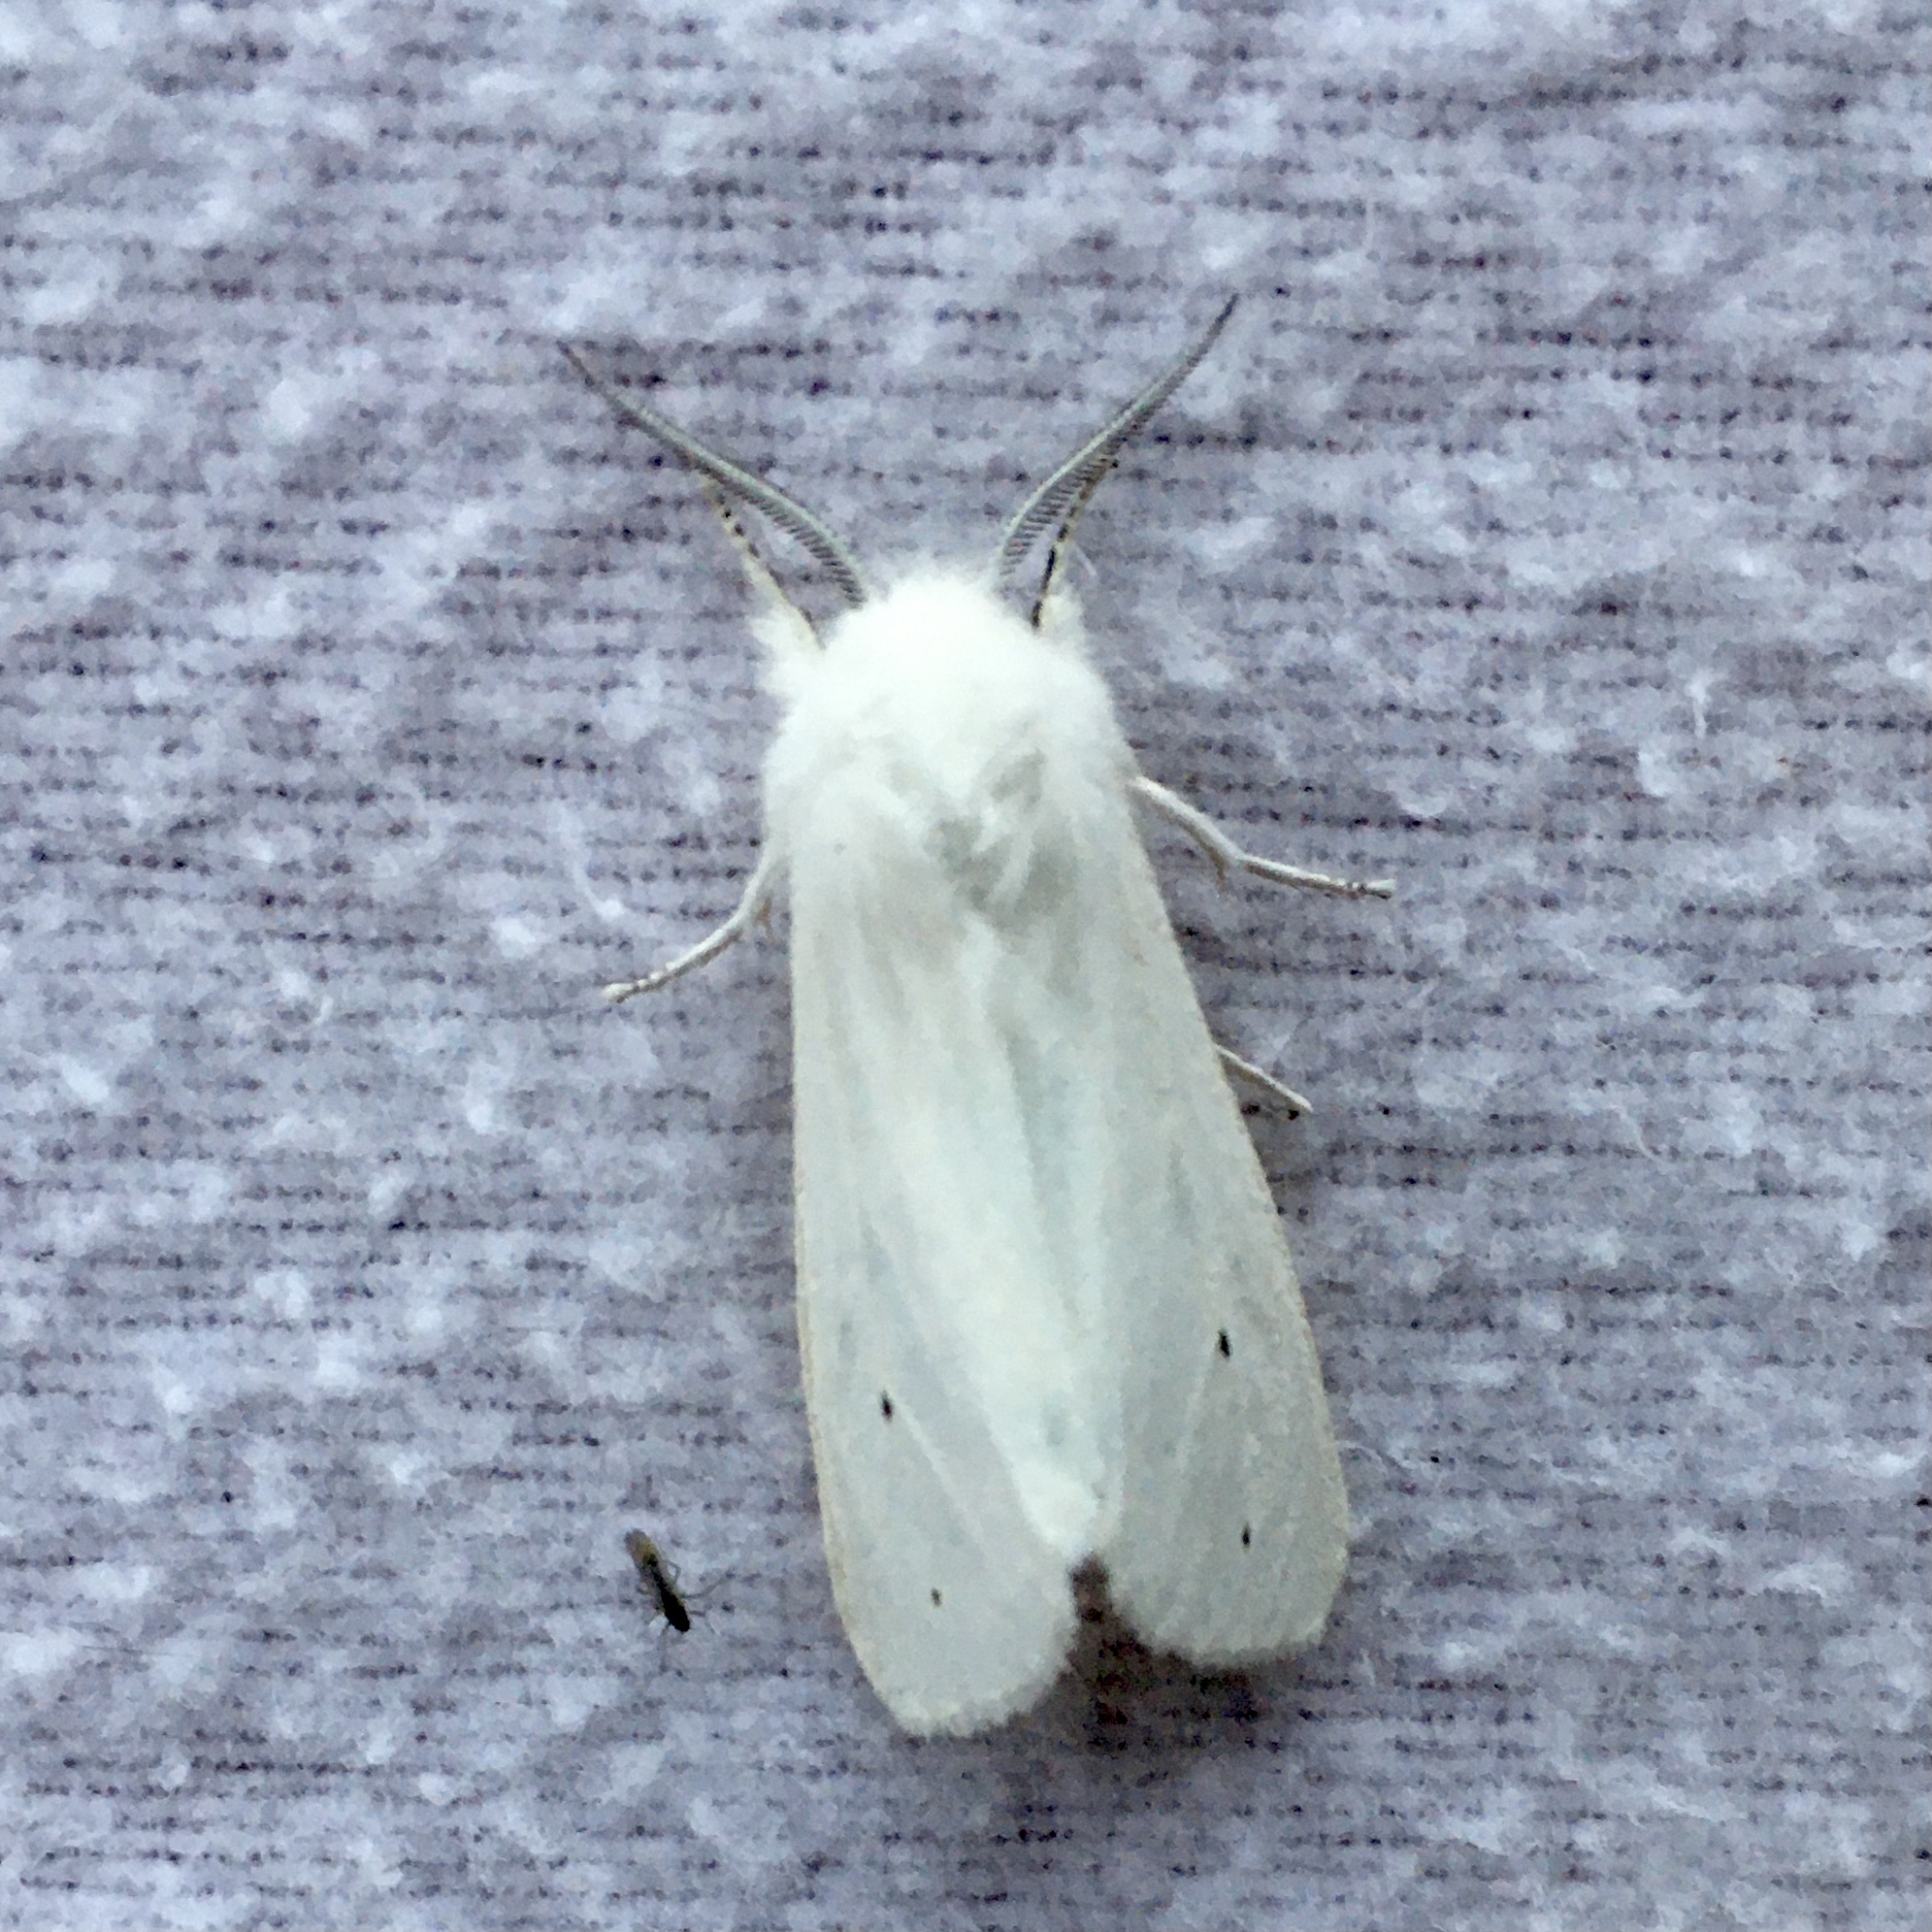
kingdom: Animalia
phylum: Arthropoda
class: Insecta
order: Lepidoptera
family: Erebidae
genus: Spilosoma
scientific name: Spilosoma virginica
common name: Virginia tiger moth
